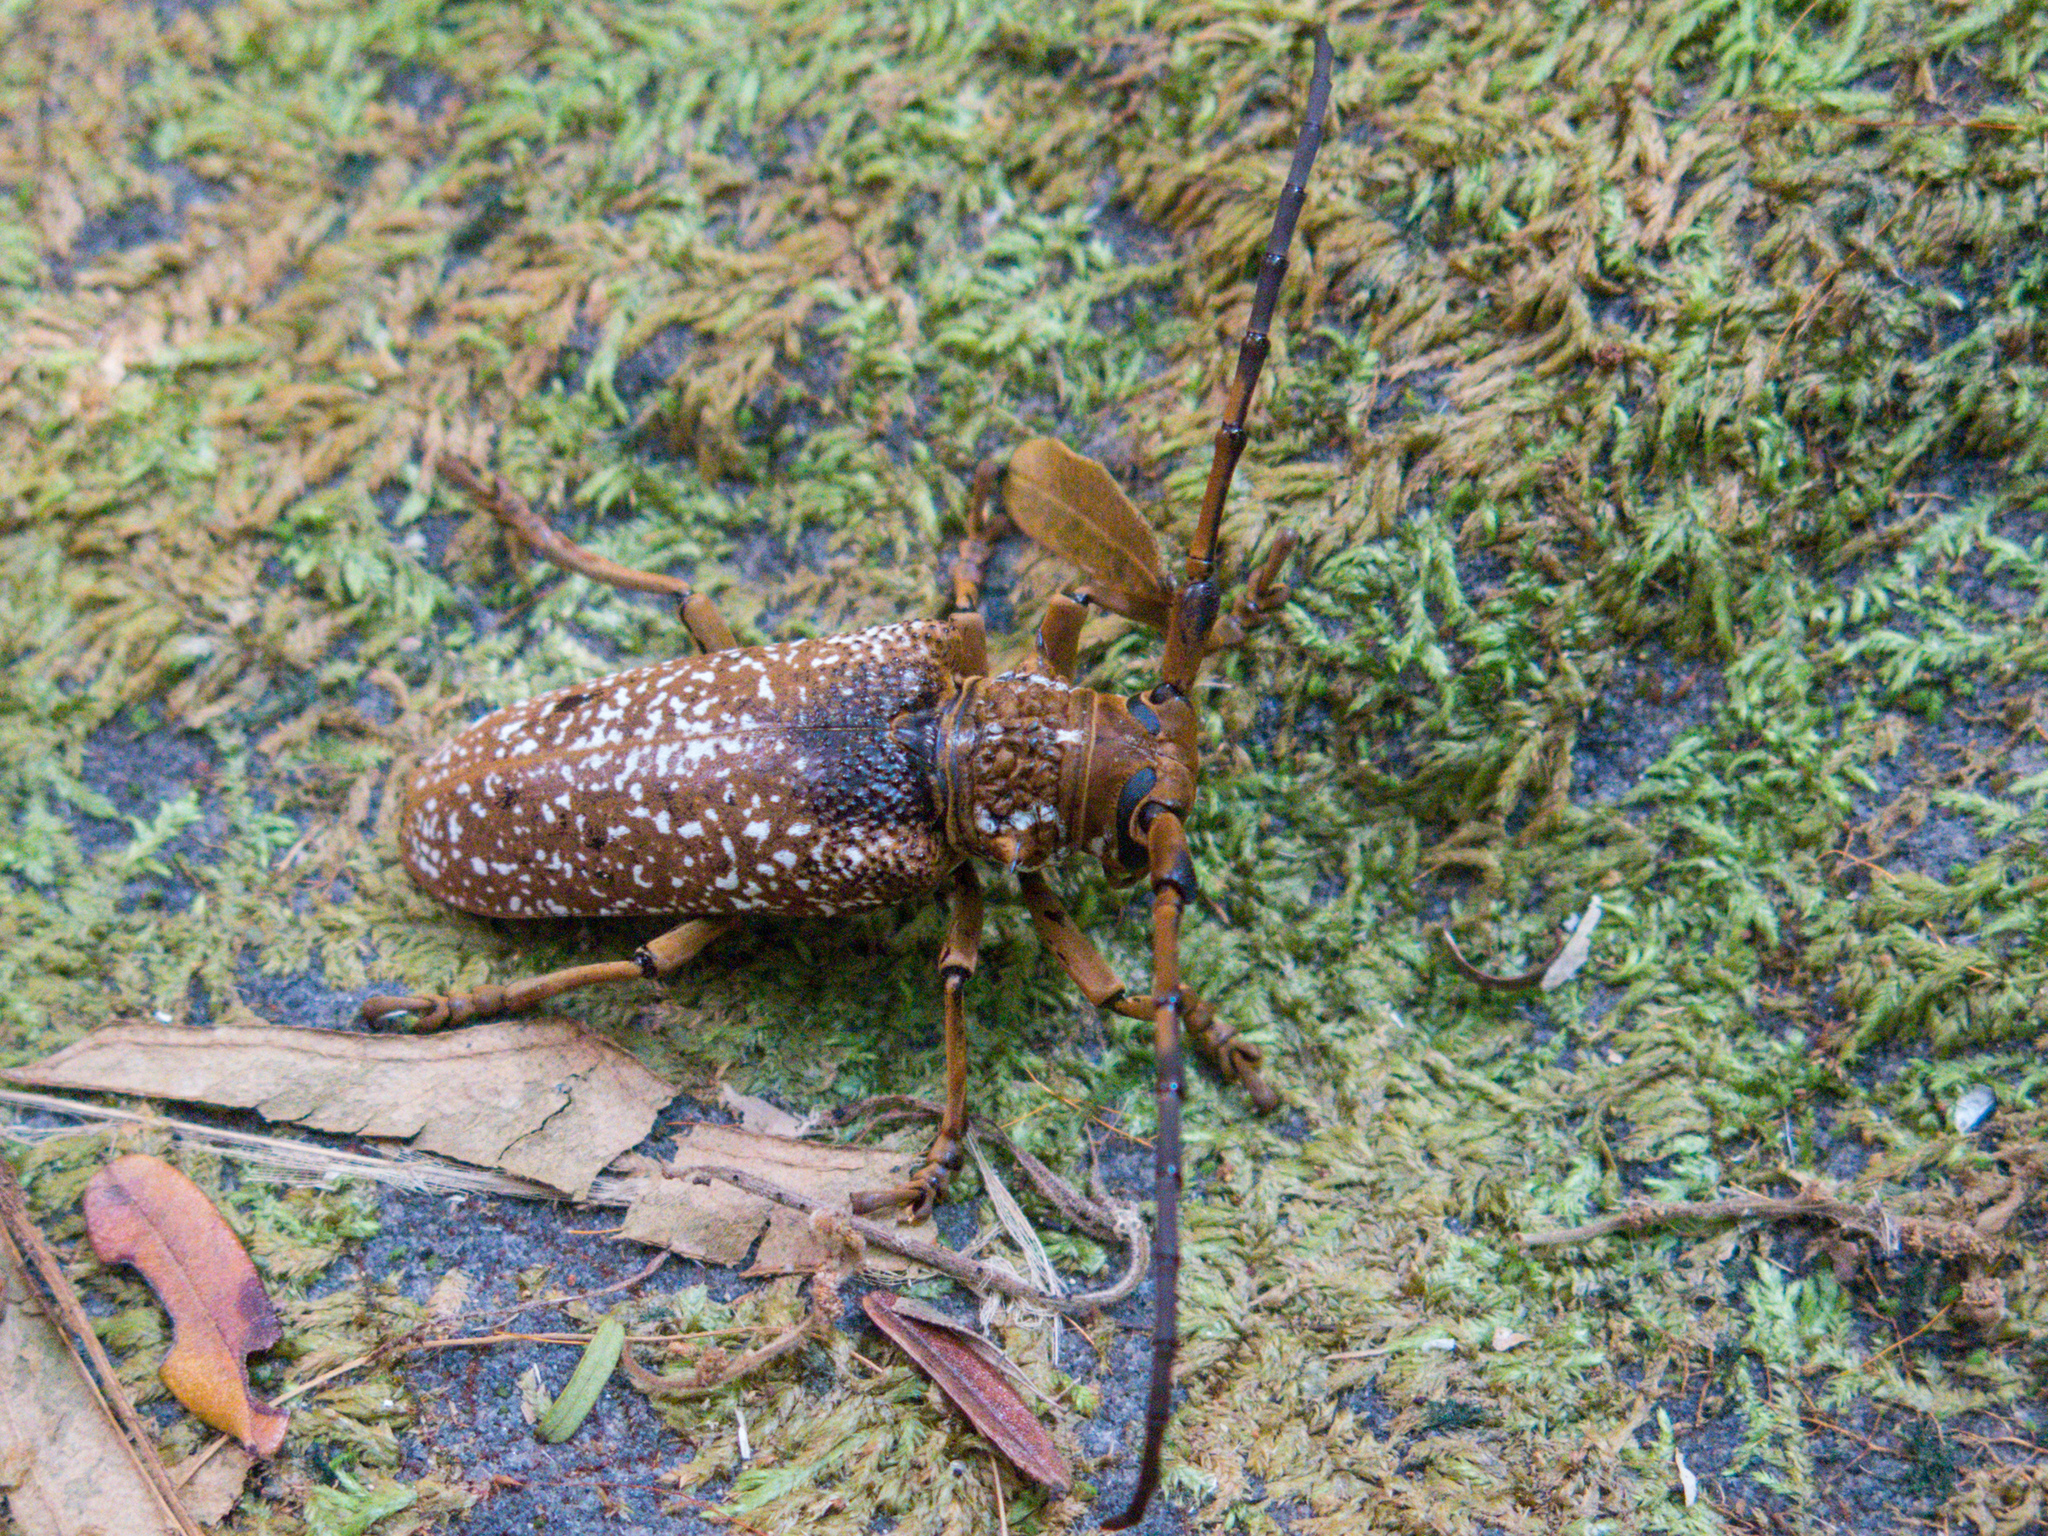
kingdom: Animalia
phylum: Arthropoda
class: Insecta
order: Coleoptera
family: Cerambycidae
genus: Apriona
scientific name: Apriona swainsoni
